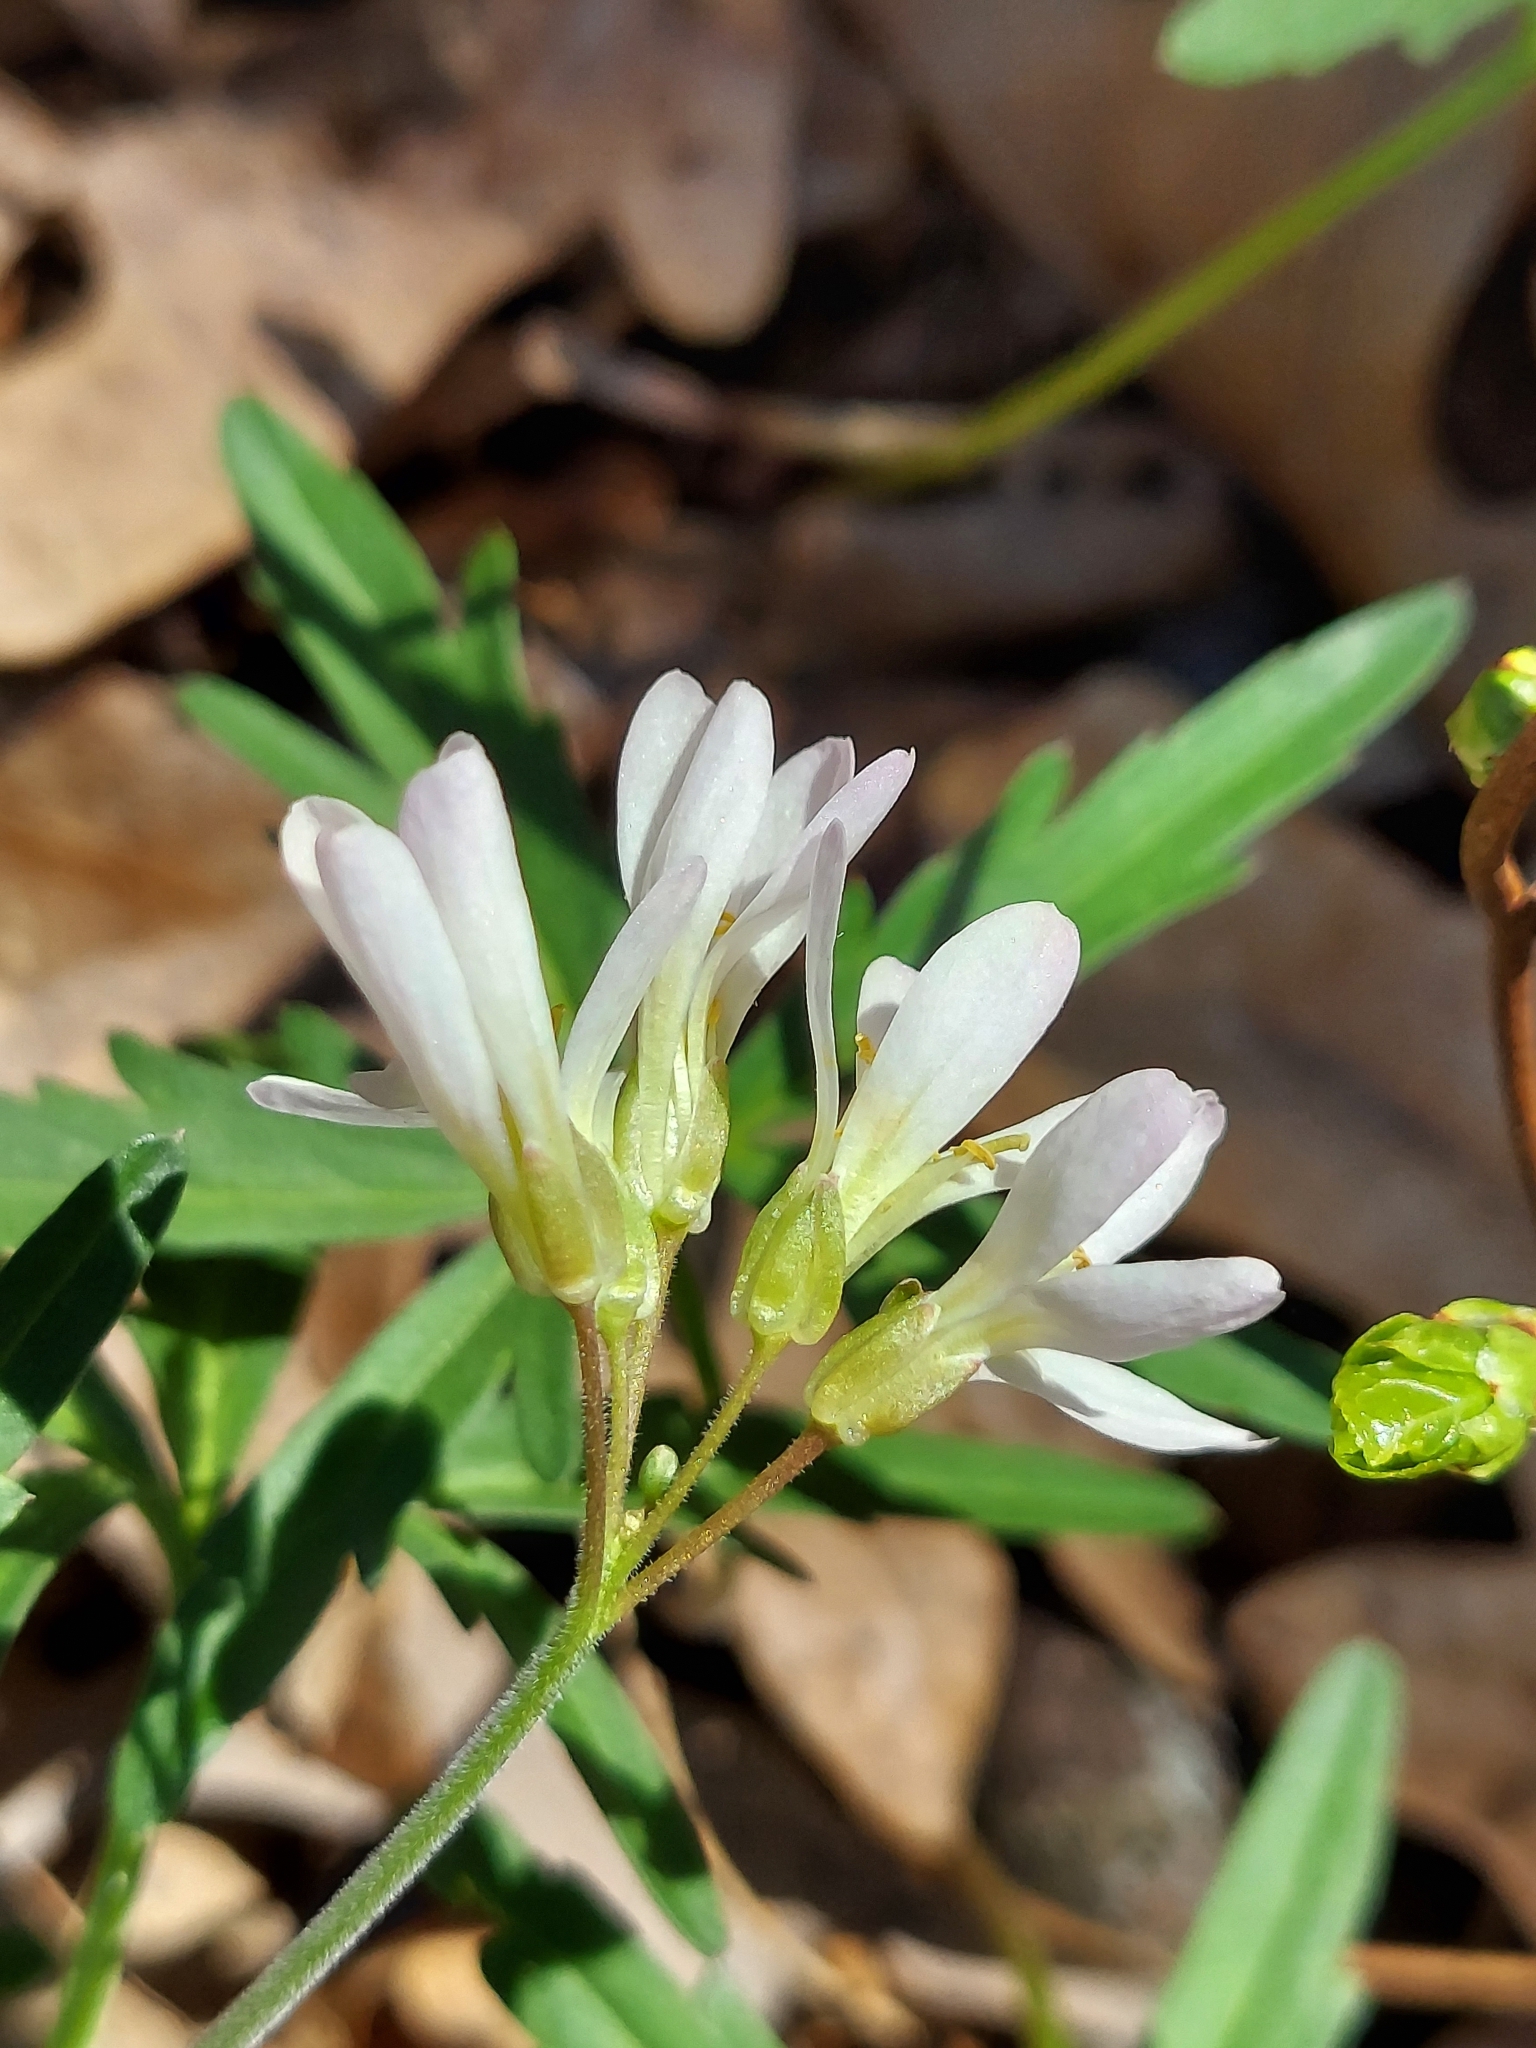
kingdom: Plantae
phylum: Tracheophyta
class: Magnoliopsida
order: Brassicales
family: Brassicaceae
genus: Cardamine
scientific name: Cardamine concatenata
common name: Cut-leaf toothcup
